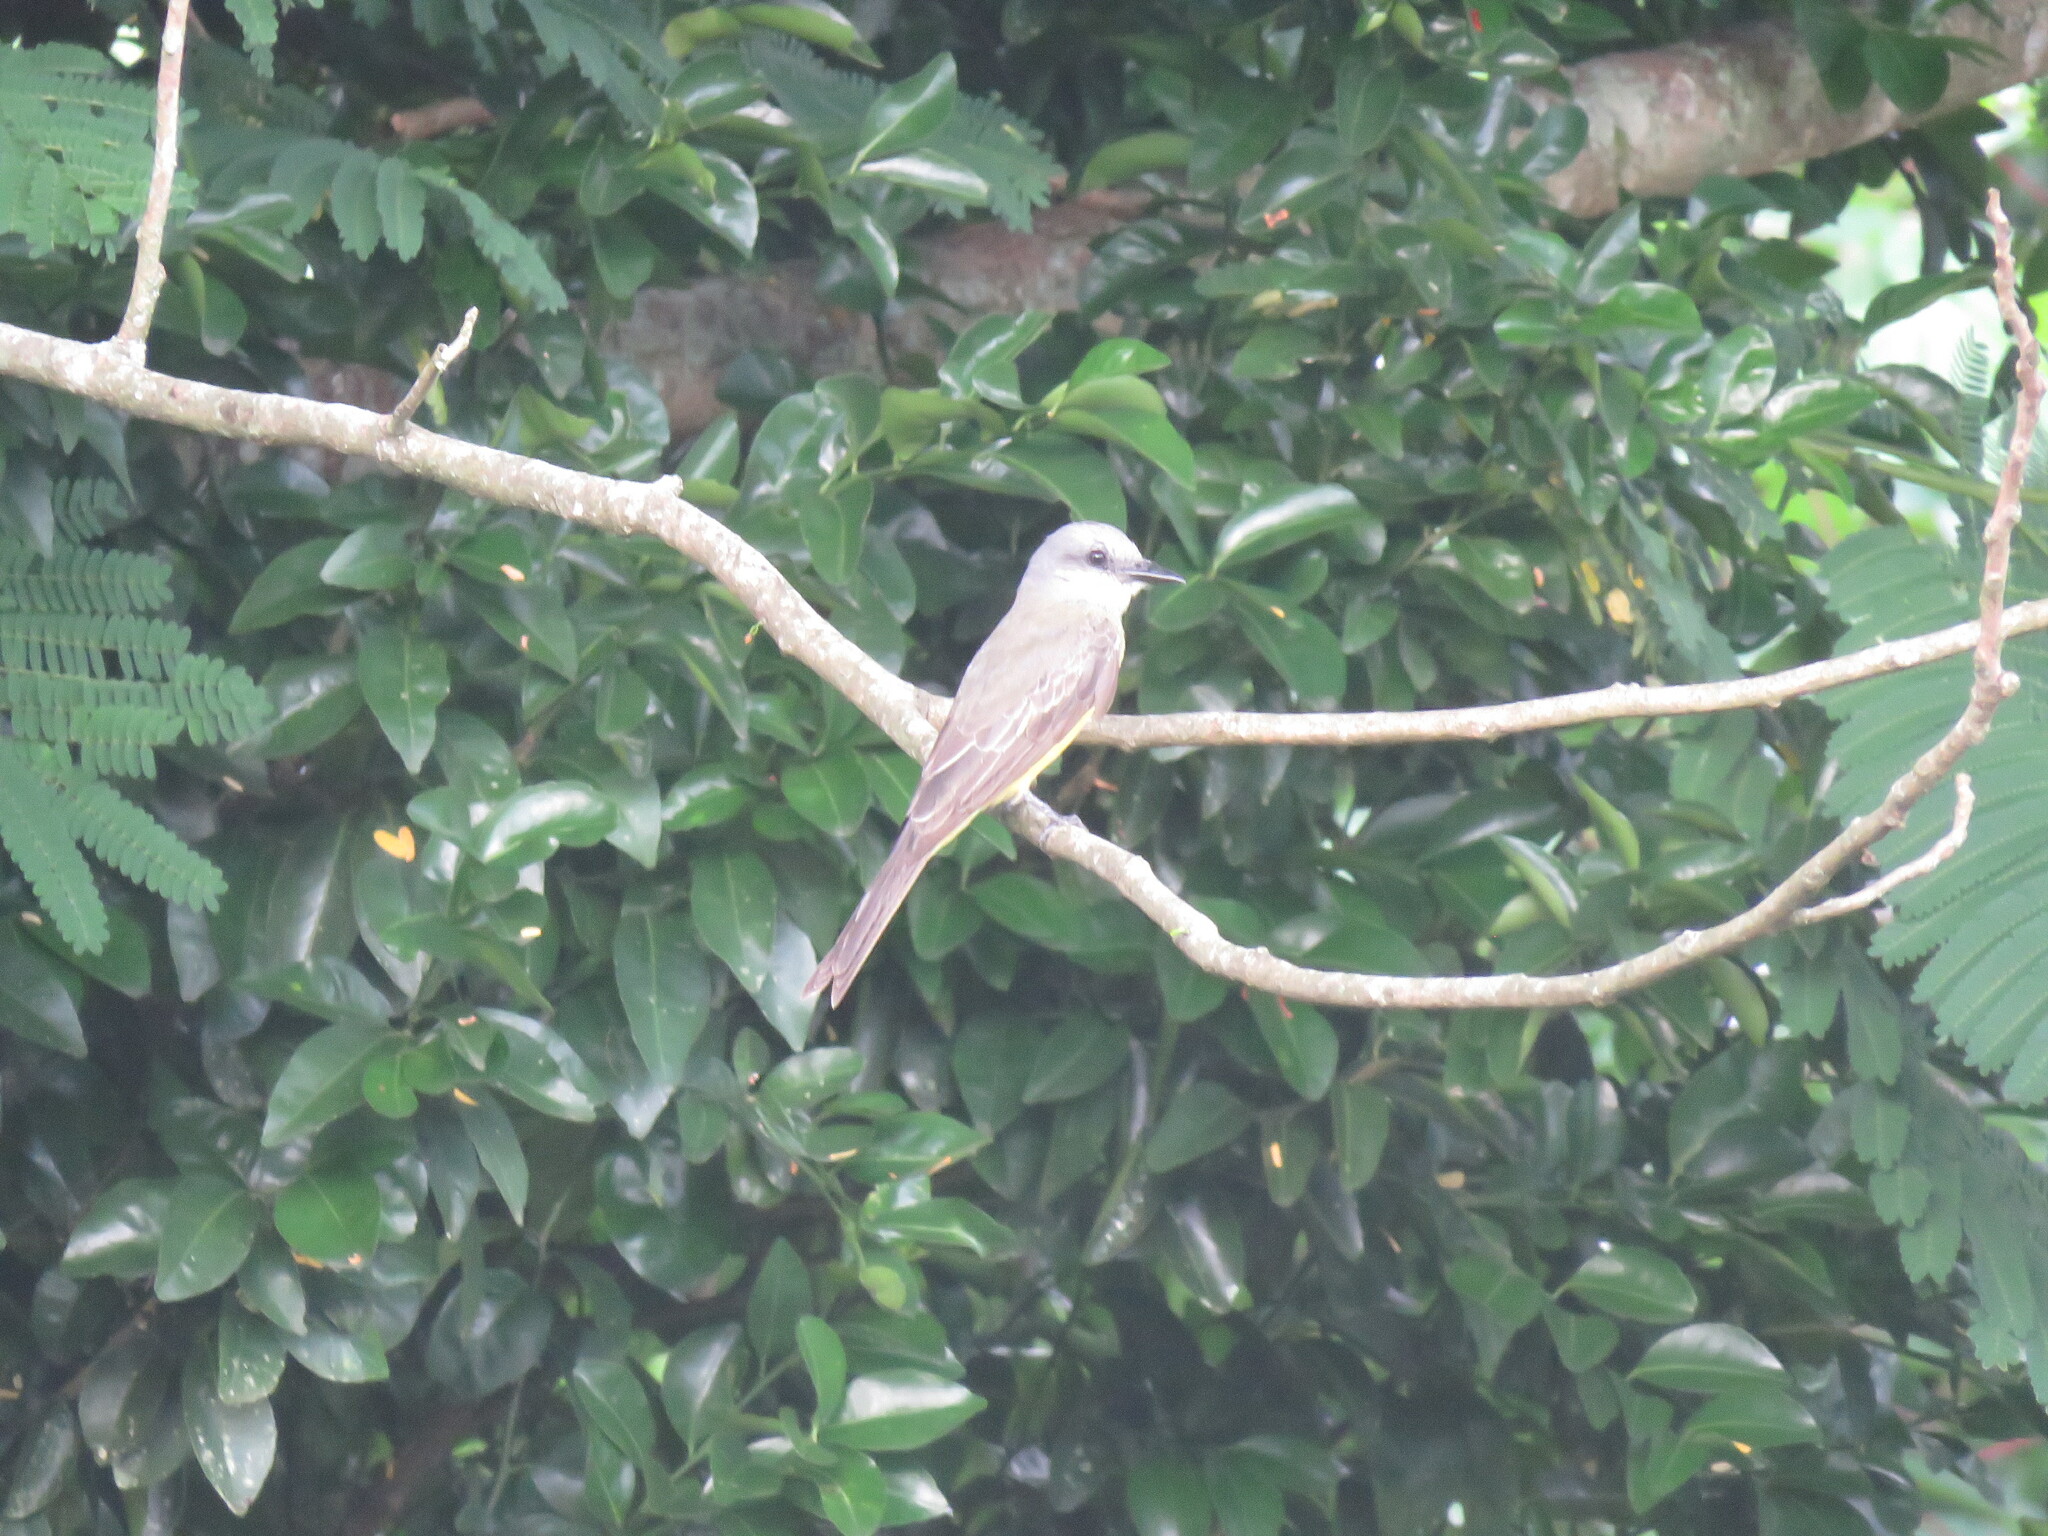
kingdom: Animalia
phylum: Chordata
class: Aves
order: Passeriformes
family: Tyrannidae
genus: Tyrannus
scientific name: Tyrannus melancholicus
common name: Tropical kingbird
